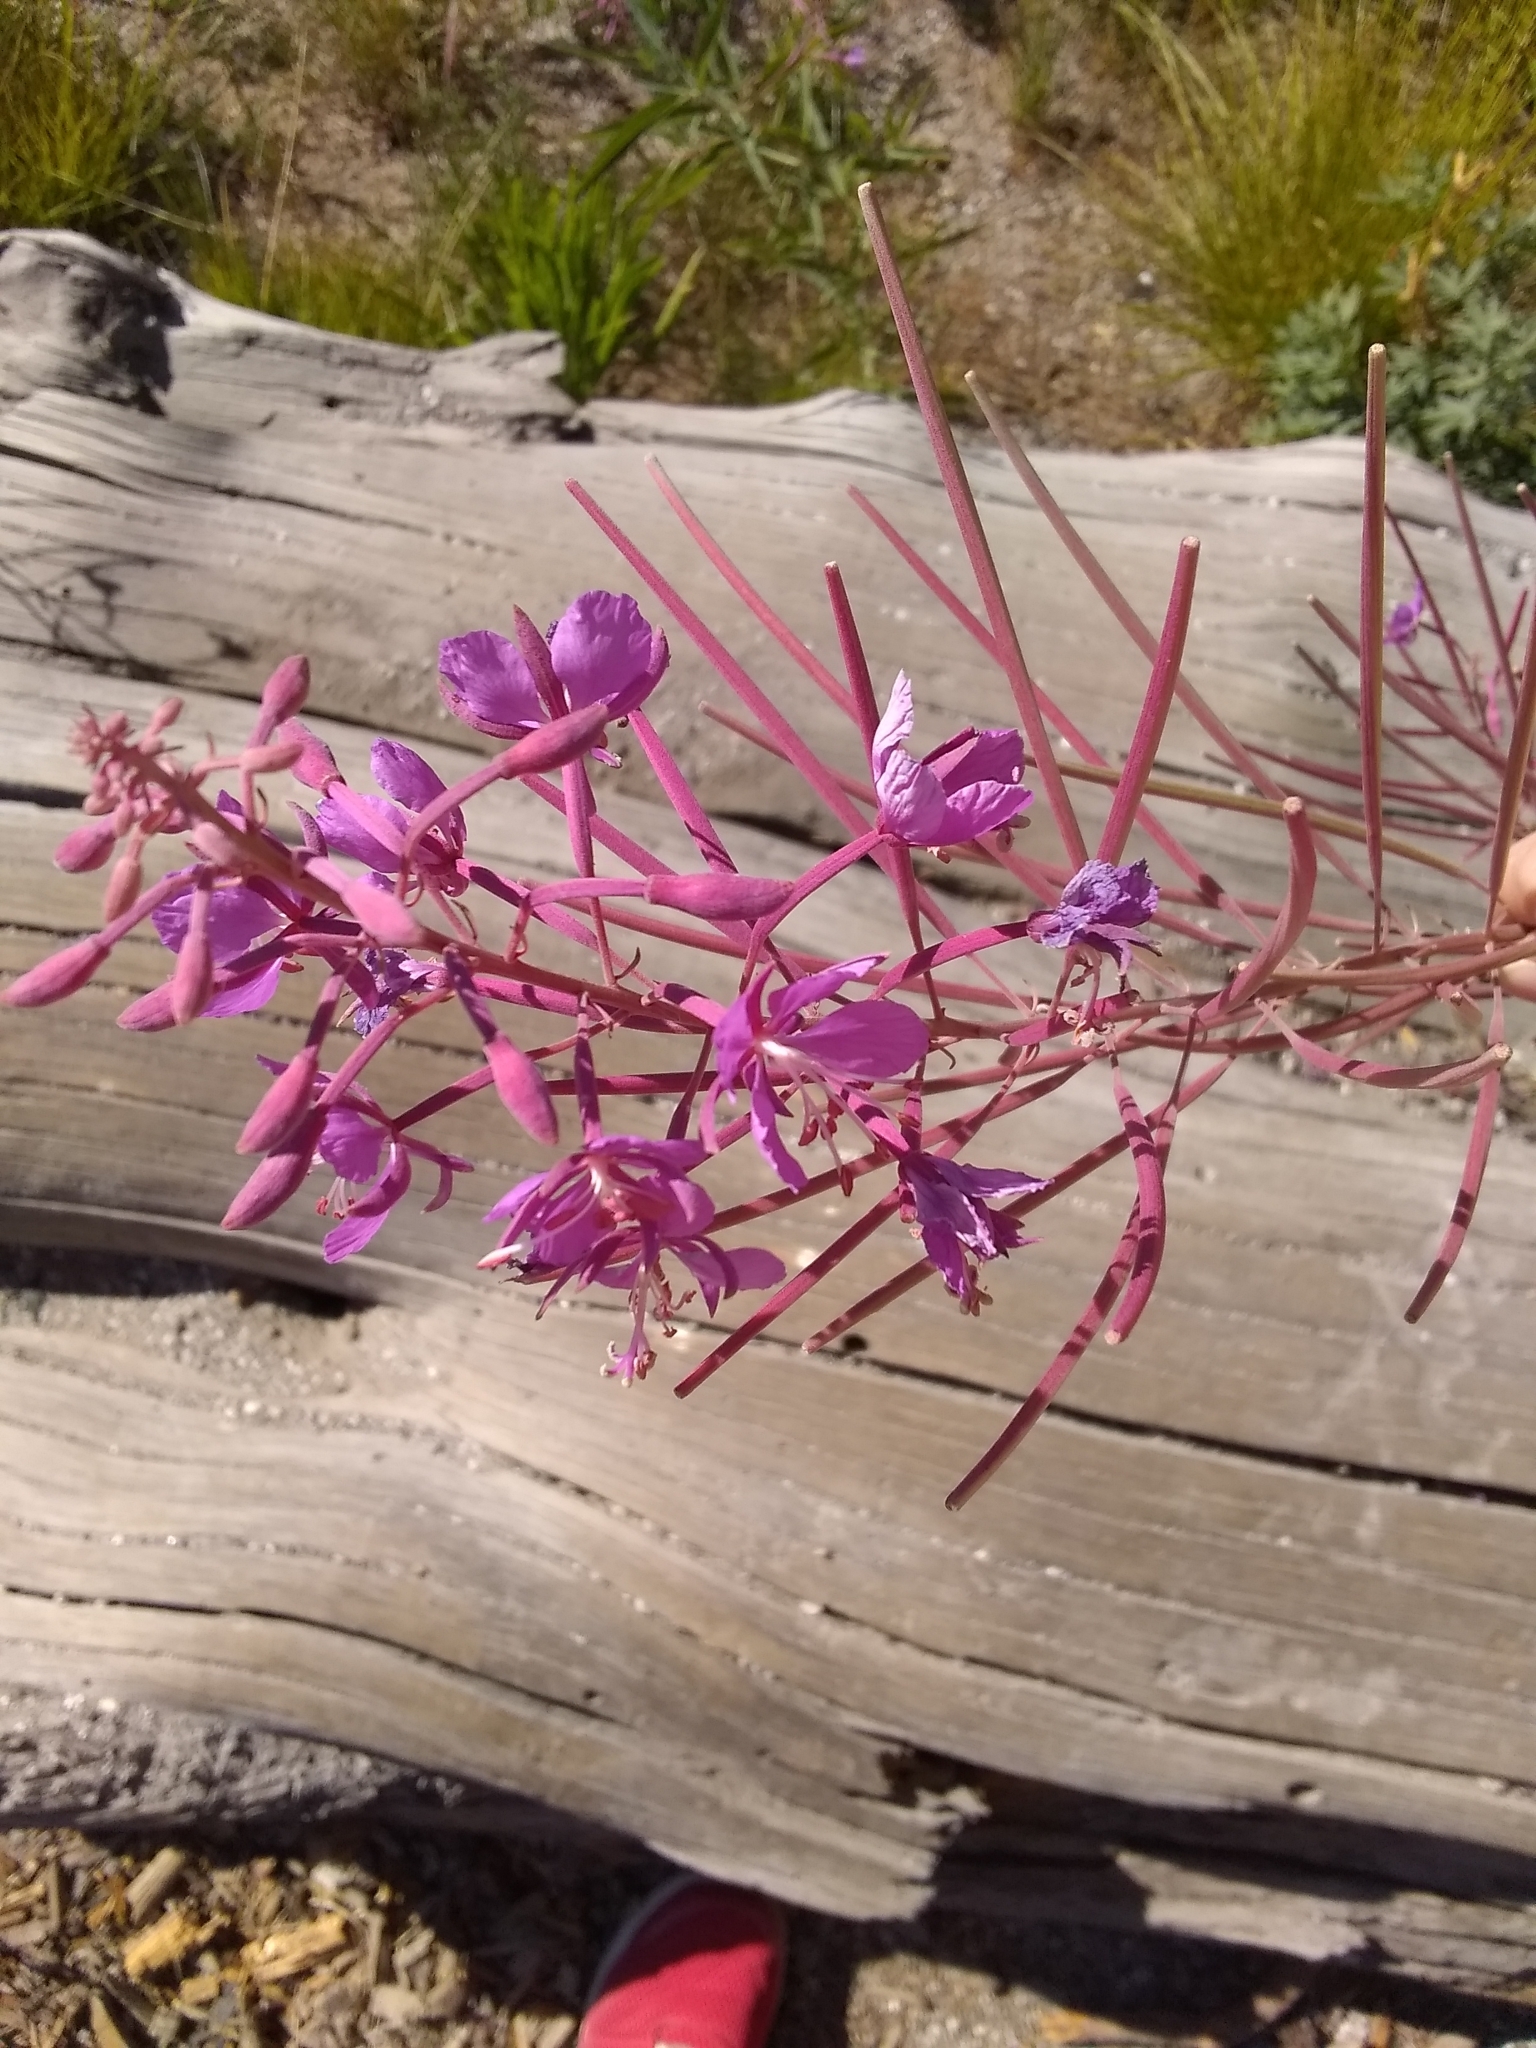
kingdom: Plantae
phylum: Tracheophyta
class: Magnoliopsida
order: Myrtales
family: Onagraceae
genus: Chamaenerion
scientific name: Chamaenerion angustifolium
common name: Fireweed
